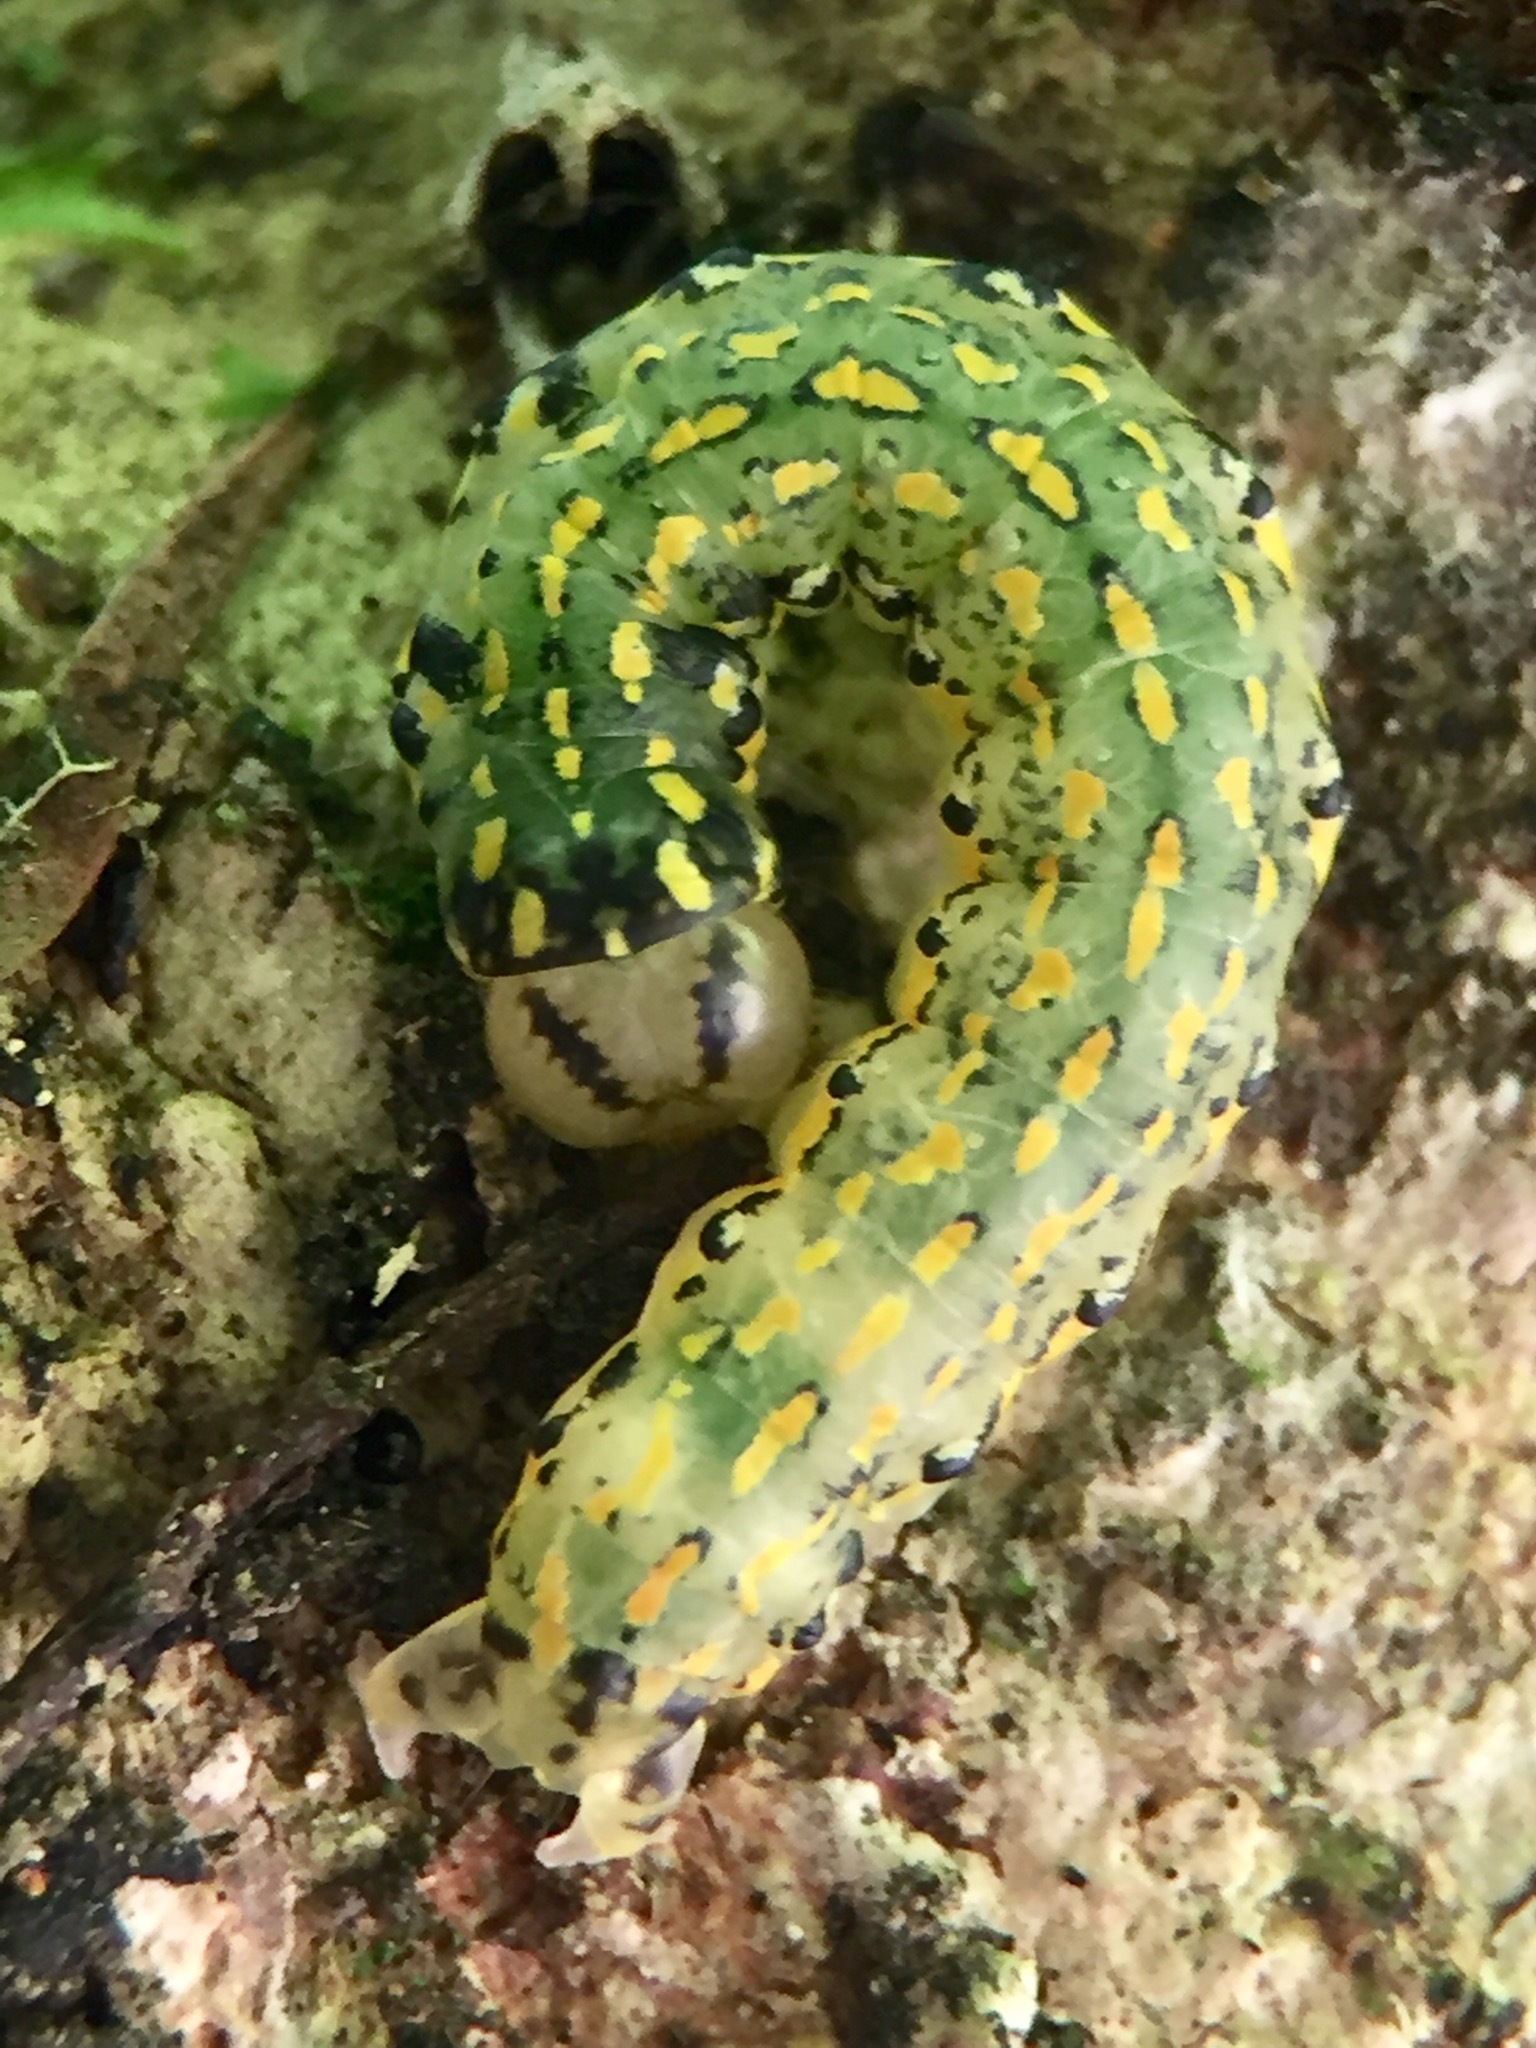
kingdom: Animalia
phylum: Arthropoda
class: Insecta
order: Lepidoptera
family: Noctuidae
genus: Austramathes
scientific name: Austramathes purpurea
